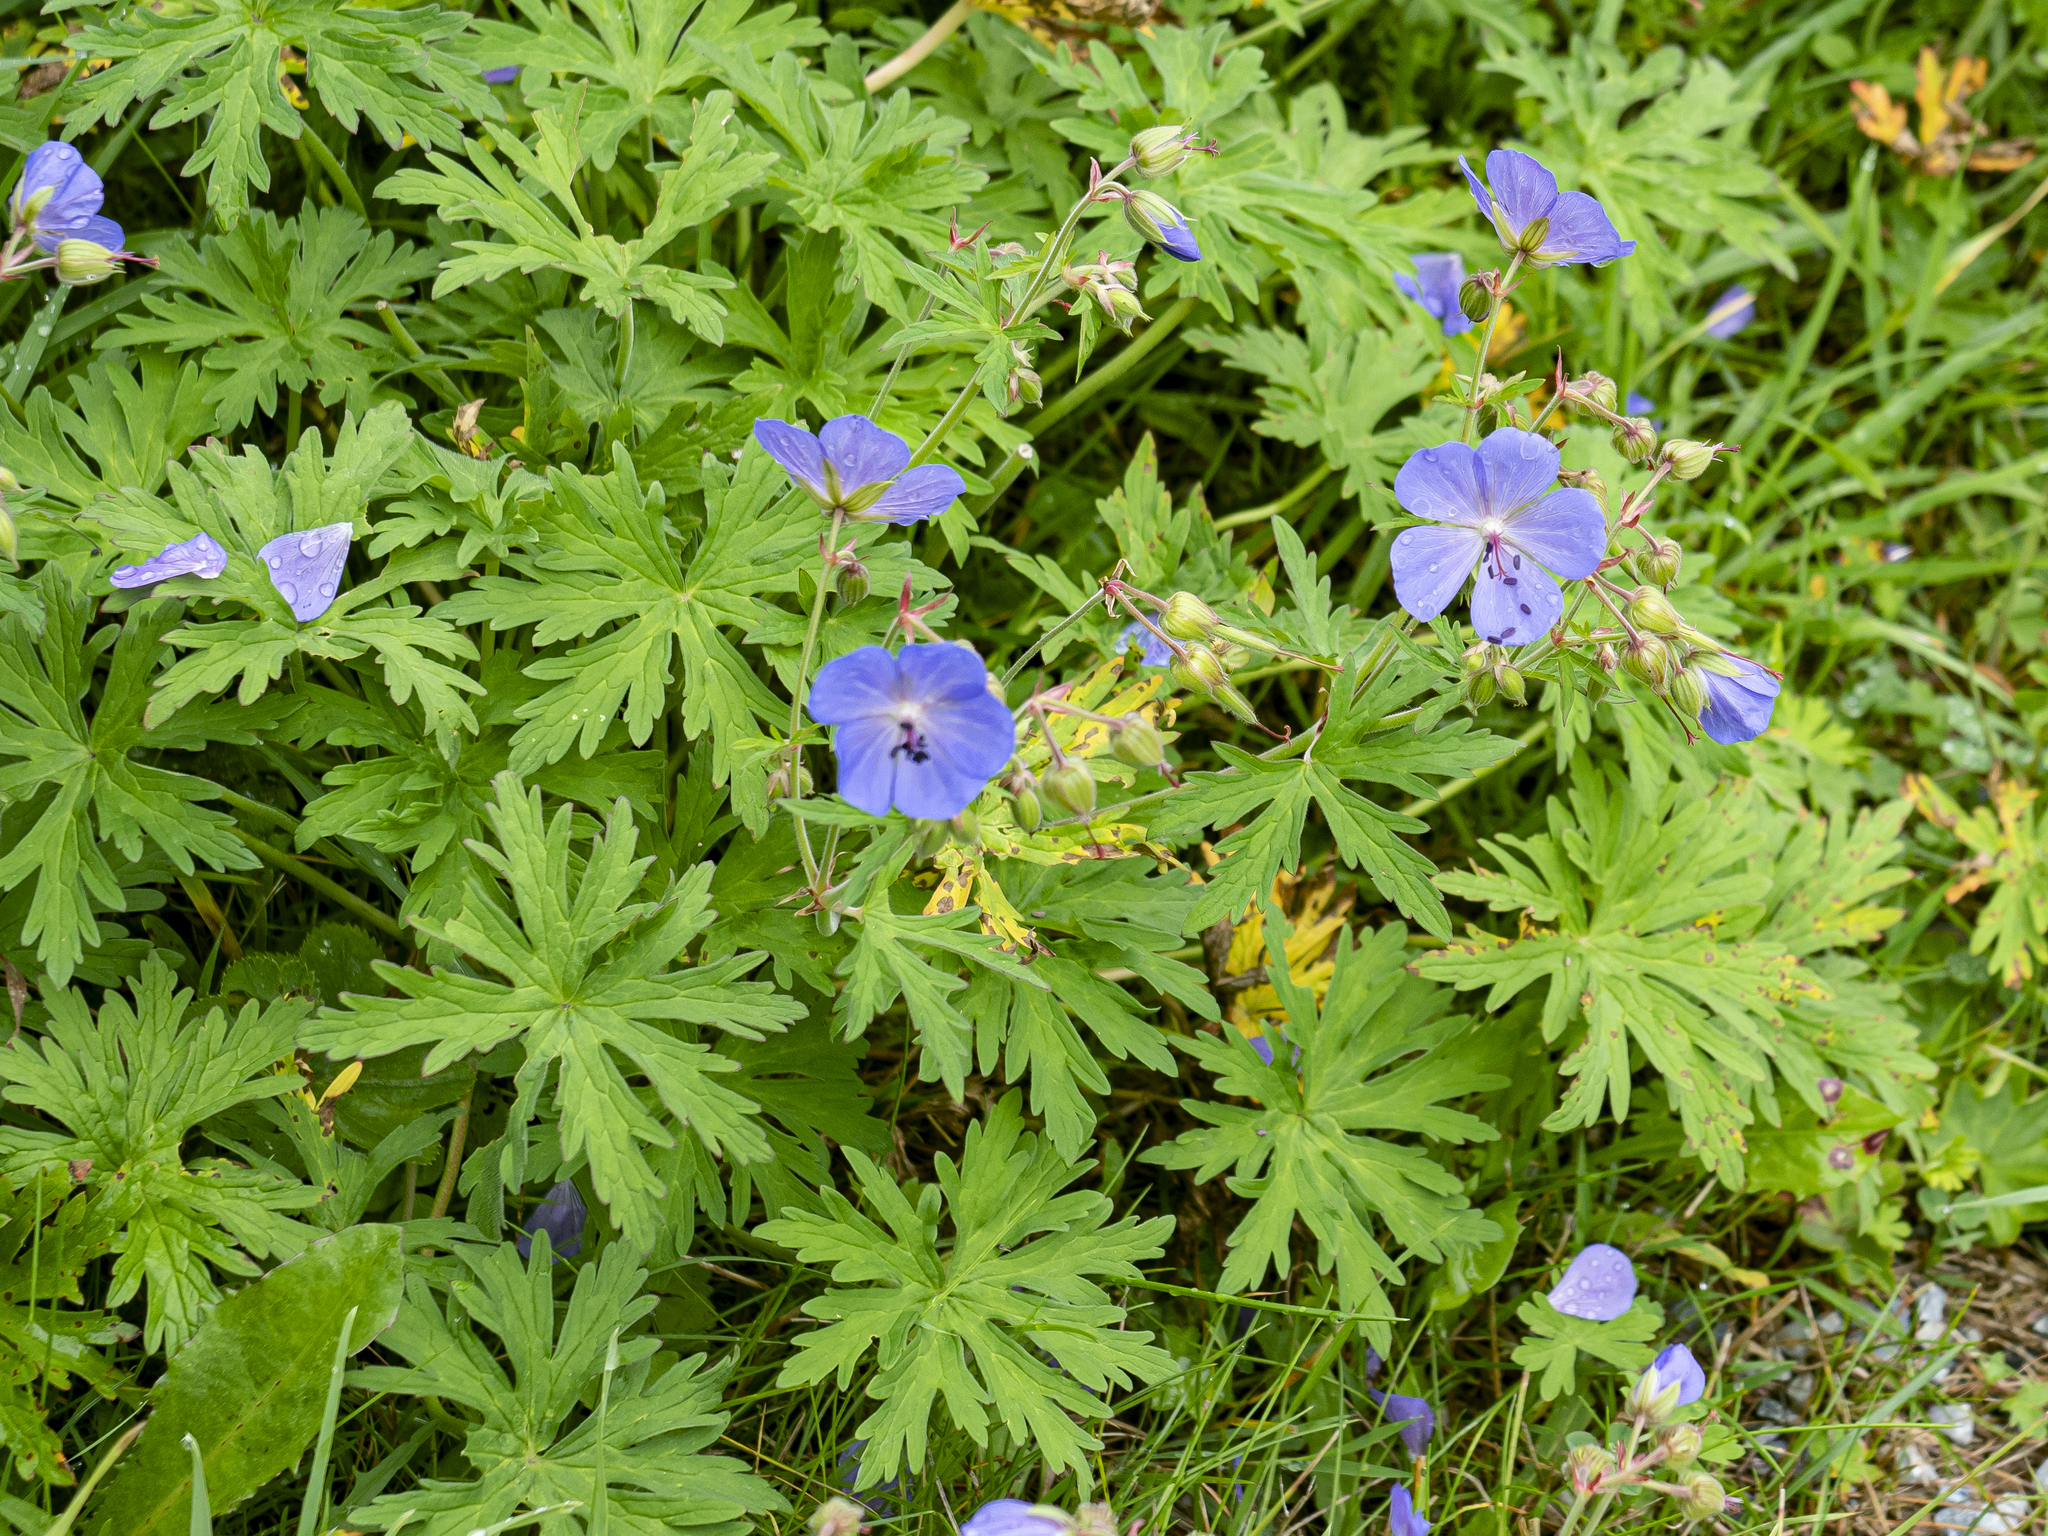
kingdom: Plantae
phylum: Tracheophyta
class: Magnoliopsida
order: Geraniales
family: Geraniaceae
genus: Geranium
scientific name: Geranium pratense
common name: Meadow crane's-bill
